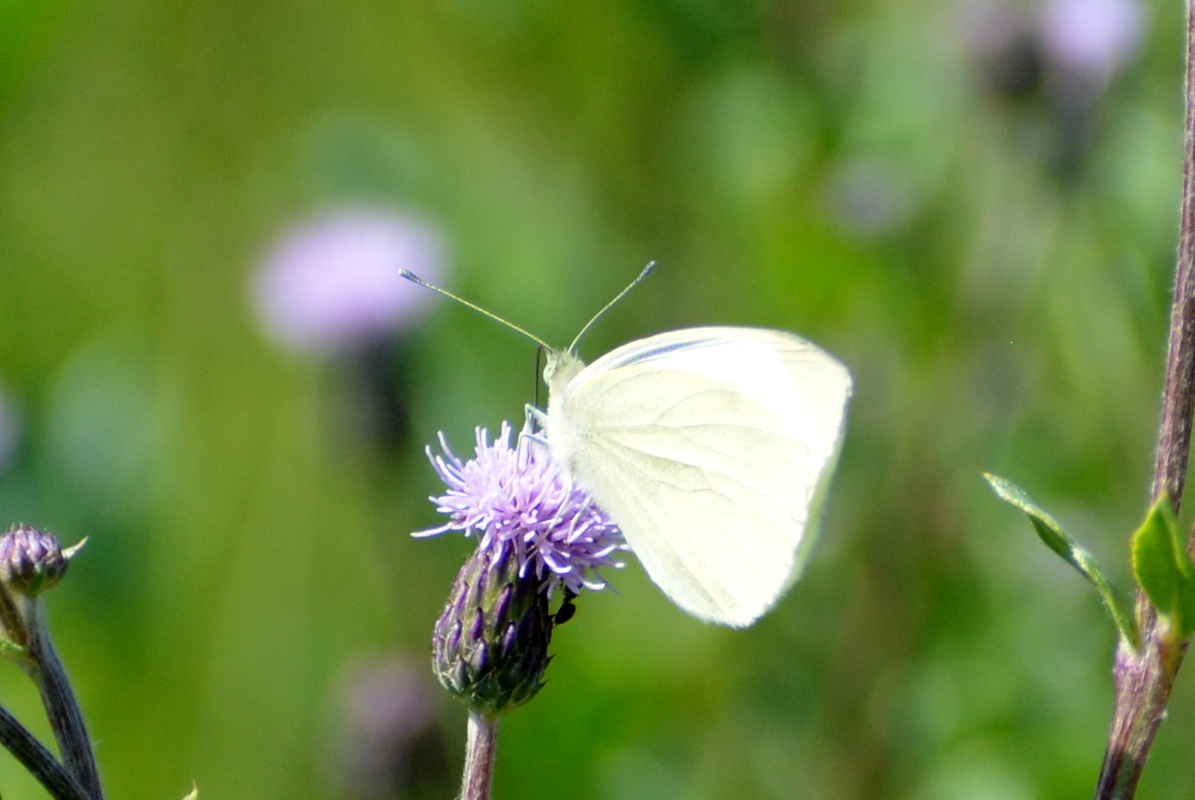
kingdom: Animalia
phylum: Arthropoda
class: Insecta
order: Lepidoptera
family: Pieridae
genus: Pieris
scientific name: Pieris rapae
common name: Small white
